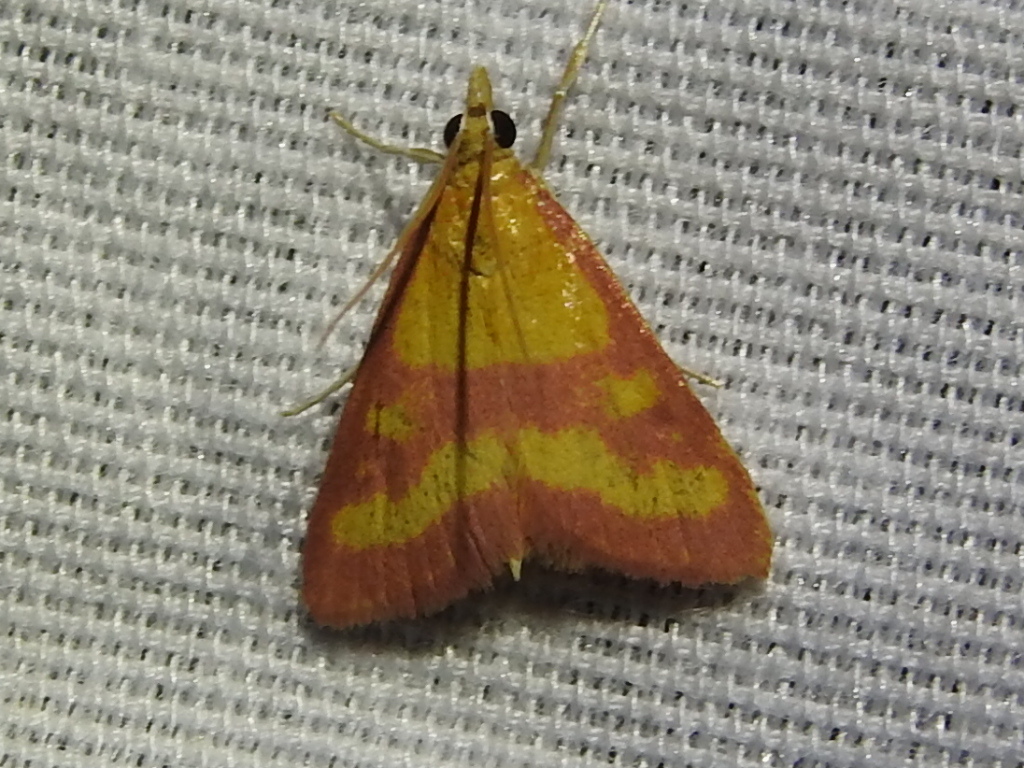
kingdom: Animalia
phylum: Arthropoda
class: Insecta
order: Lepidoptera
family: Crambidae
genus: Pyrausta
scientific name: Pyrausta laticlavia
